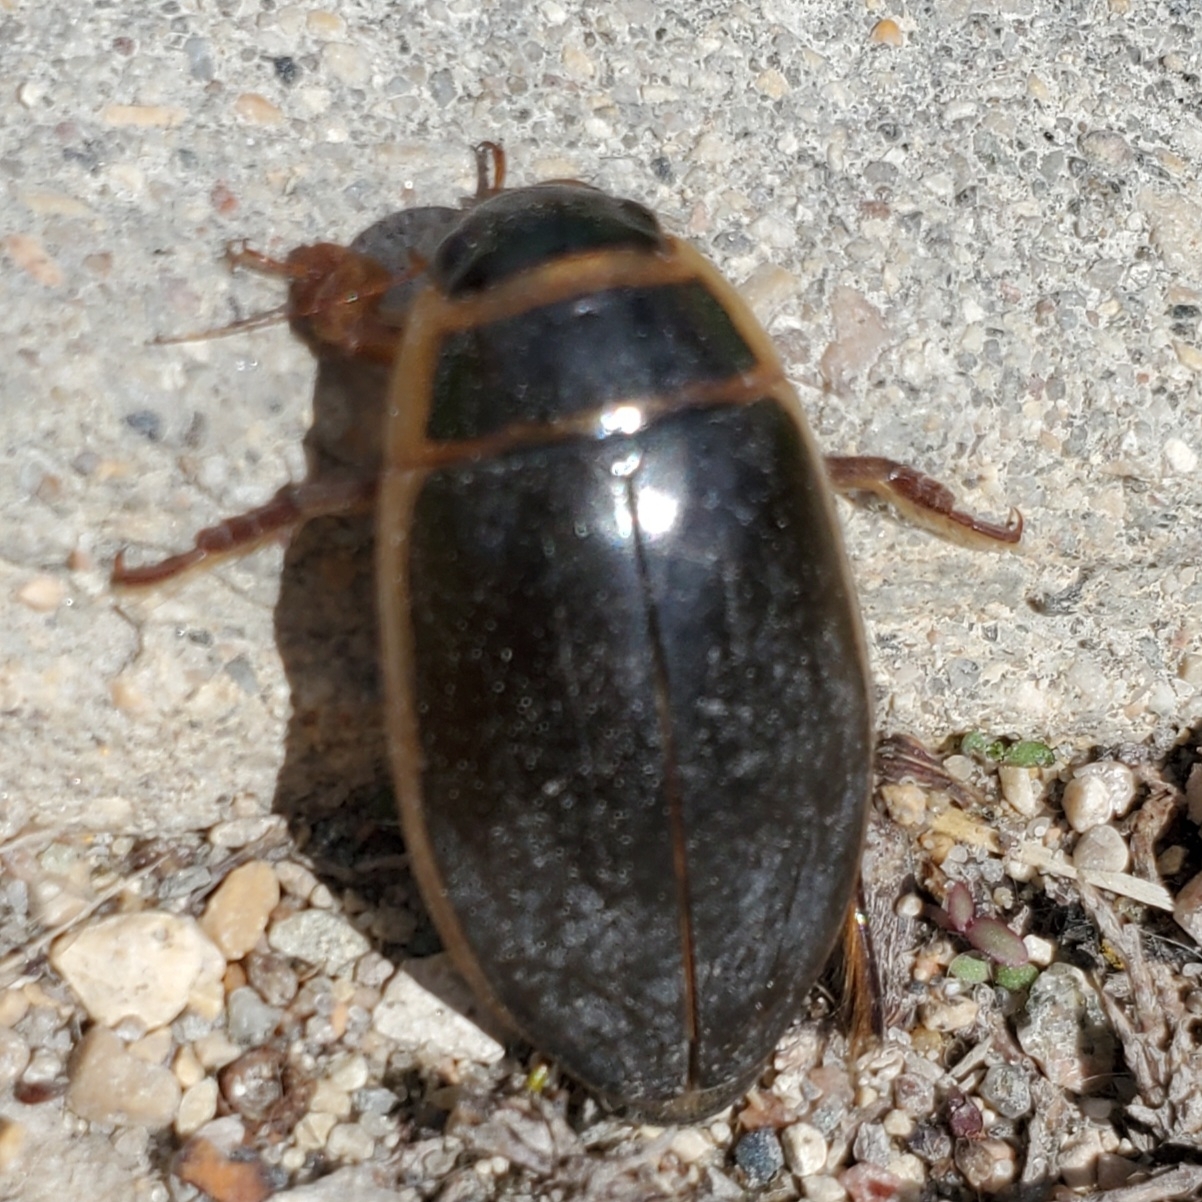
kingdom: Animalia
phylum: Arthropoda
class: Insecta
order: Coleoptera
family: Dytiscidae
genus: Dytiscus
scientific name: Dytiscus
